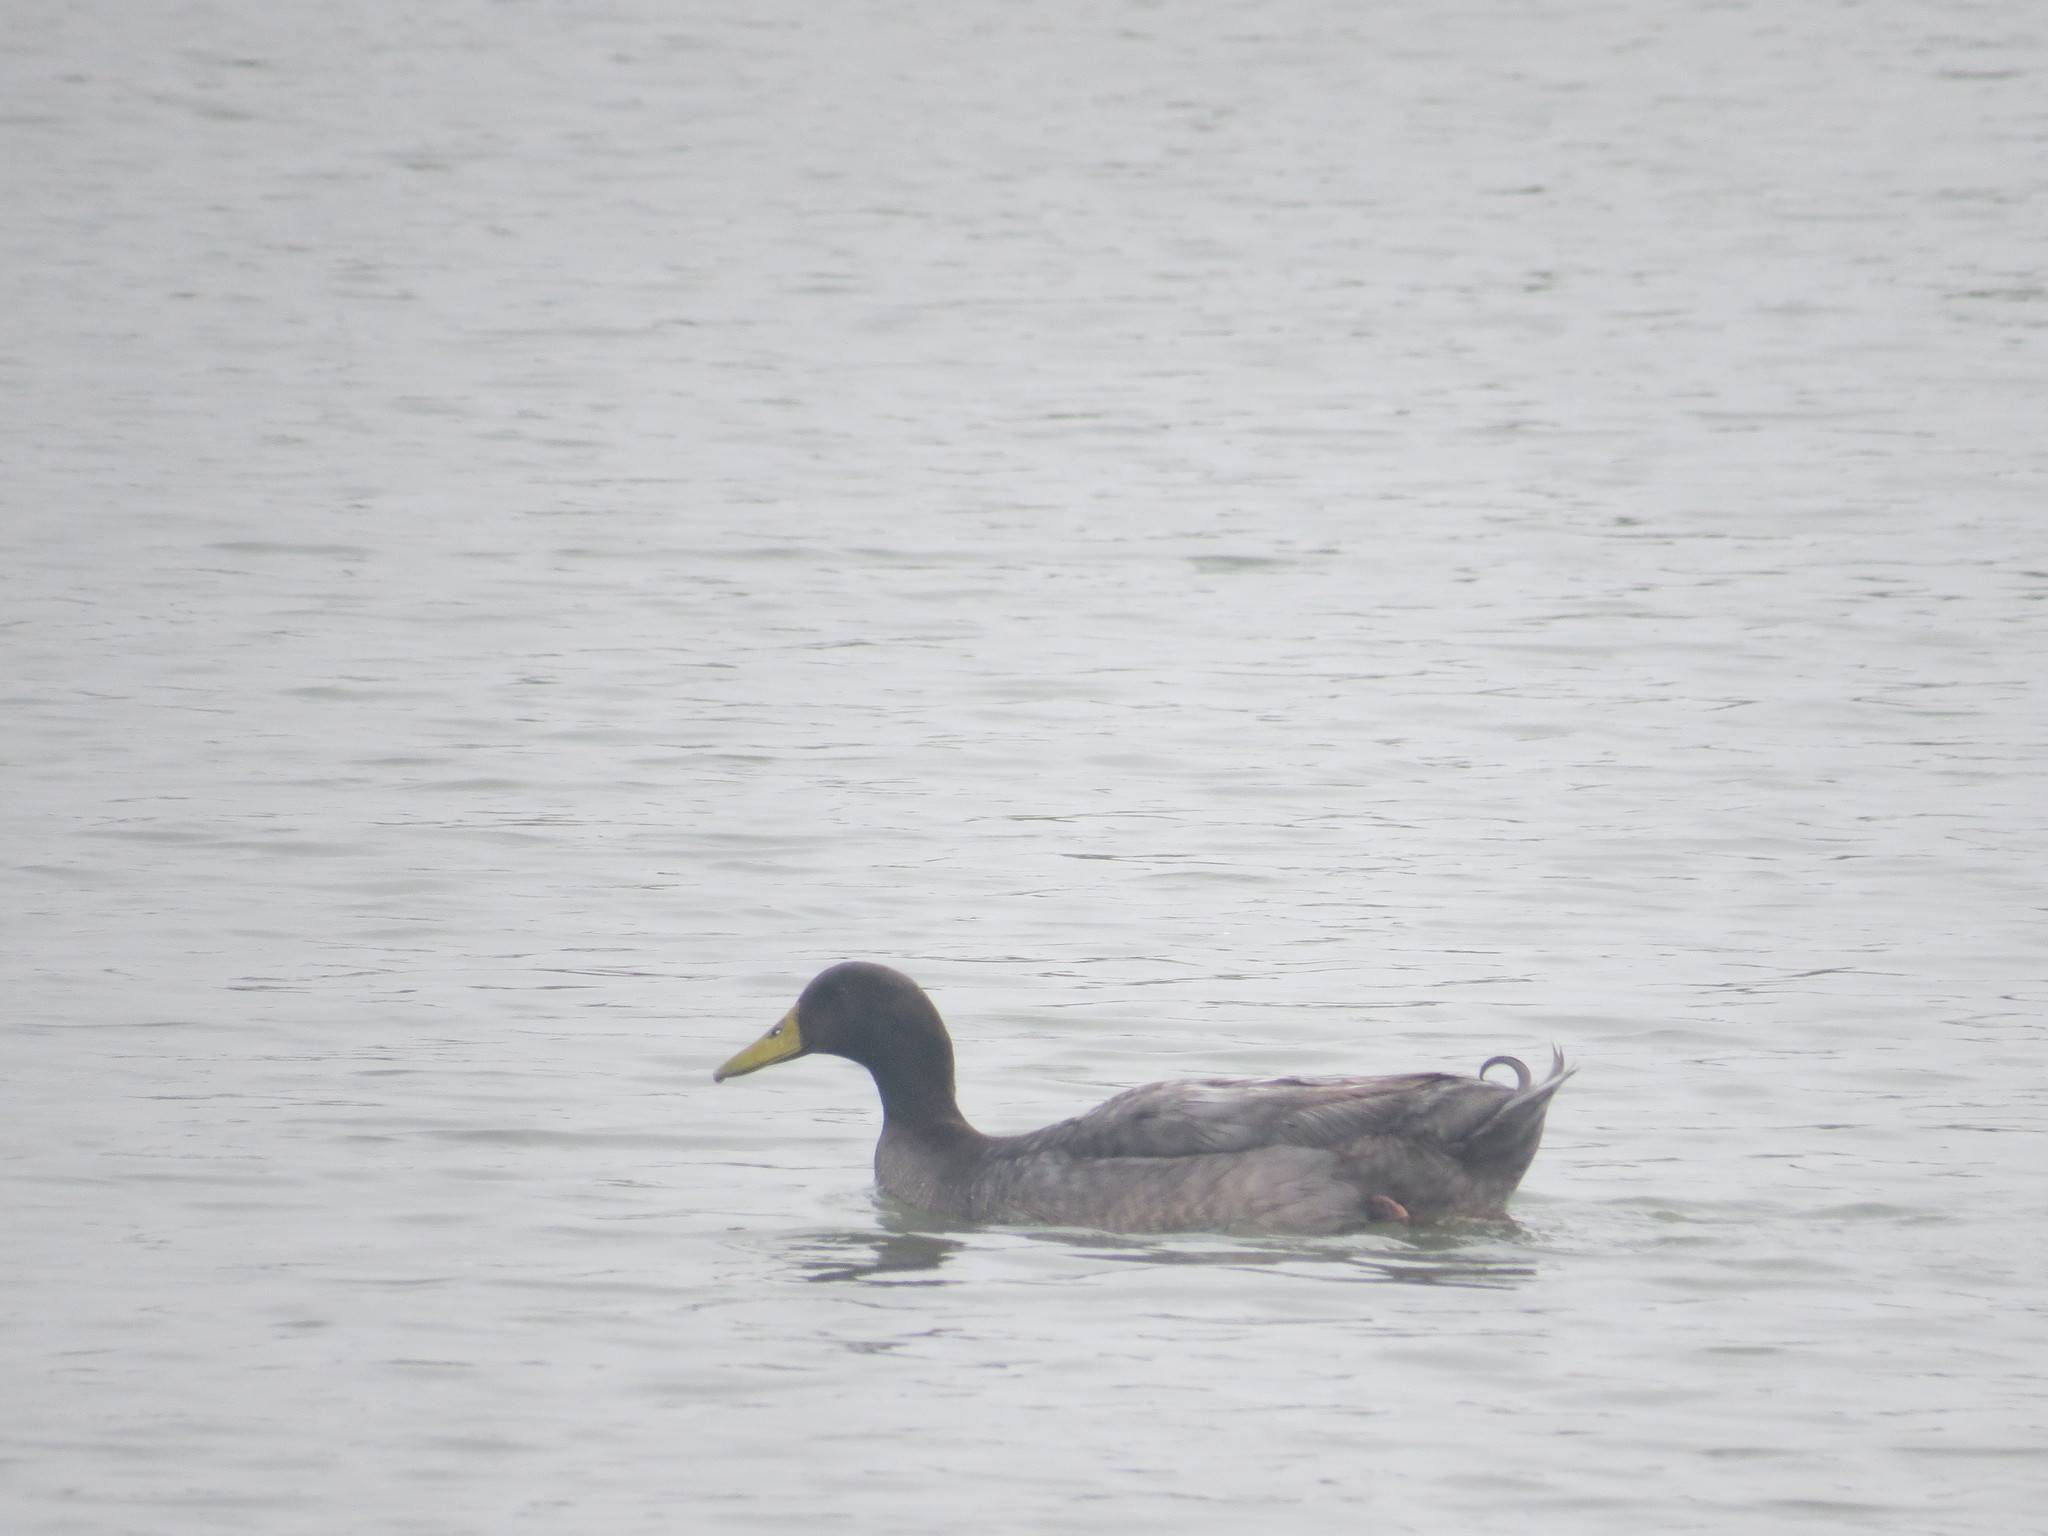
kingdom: Animalia
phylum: Chordata
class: Aves
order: Anseriformes
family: Anatidae
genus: Anas
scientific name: Anas platyrhynchos
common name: Mallard
